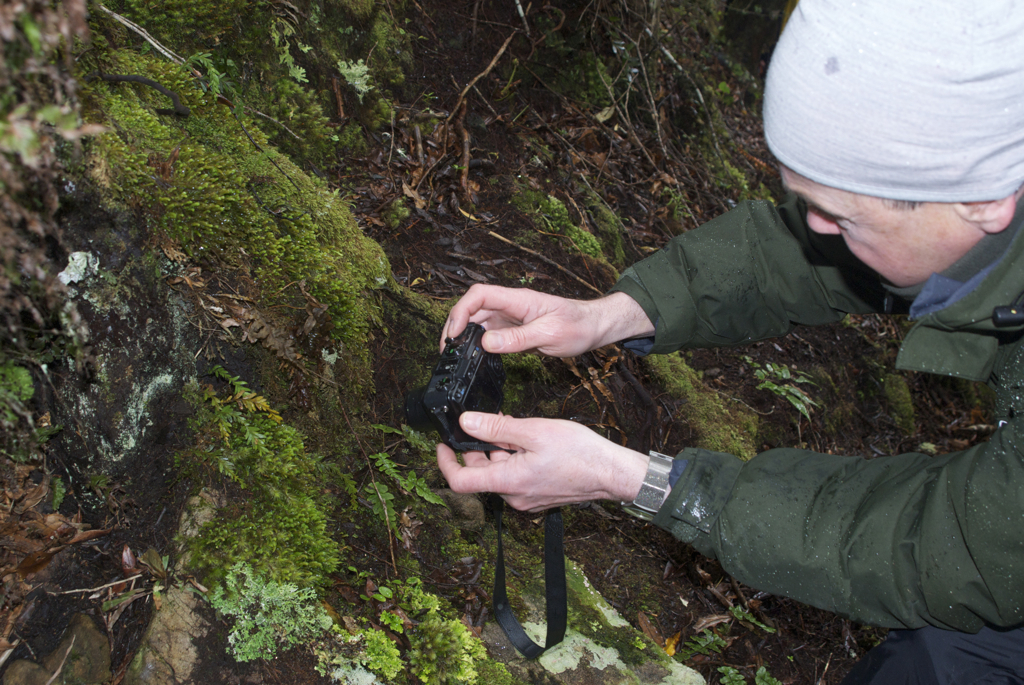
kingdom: Plantae
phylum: Tracheophyta
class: Polypodiopsida
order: Psilotales
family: Psilotaceae
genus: Tmesipteris
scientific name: Tmesipteris tannensis
